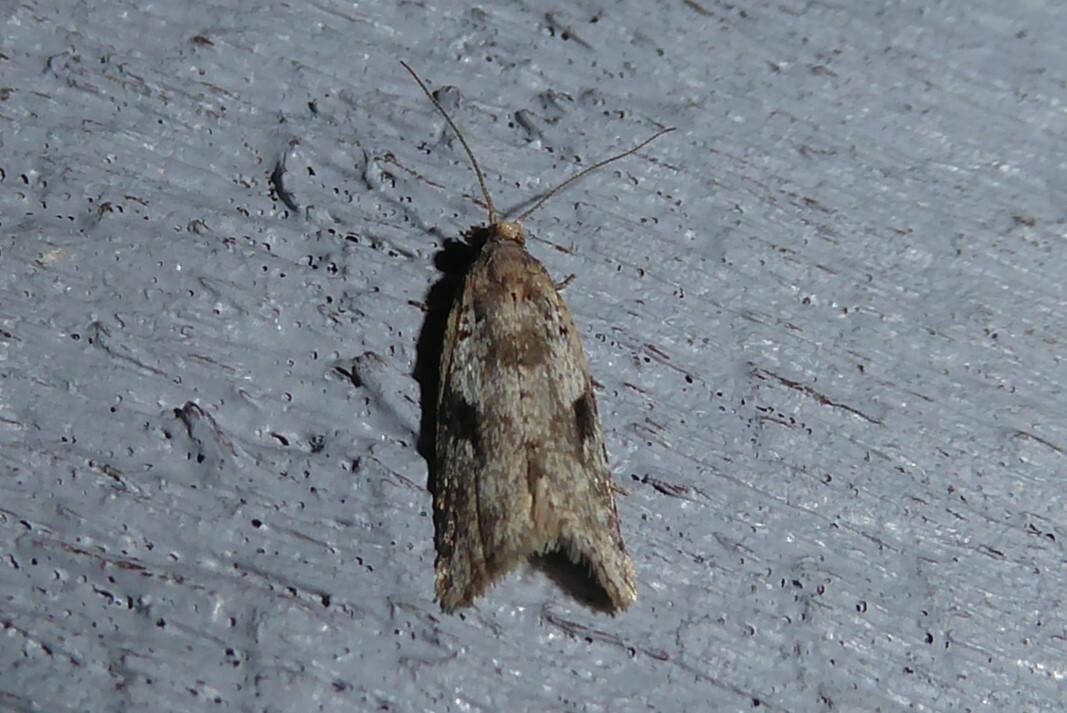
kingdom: Animalia
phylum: Arthropoda
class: Insecta
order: Lepidoptera
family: Tortricidae
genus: Capua
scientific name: Capua semiferana
